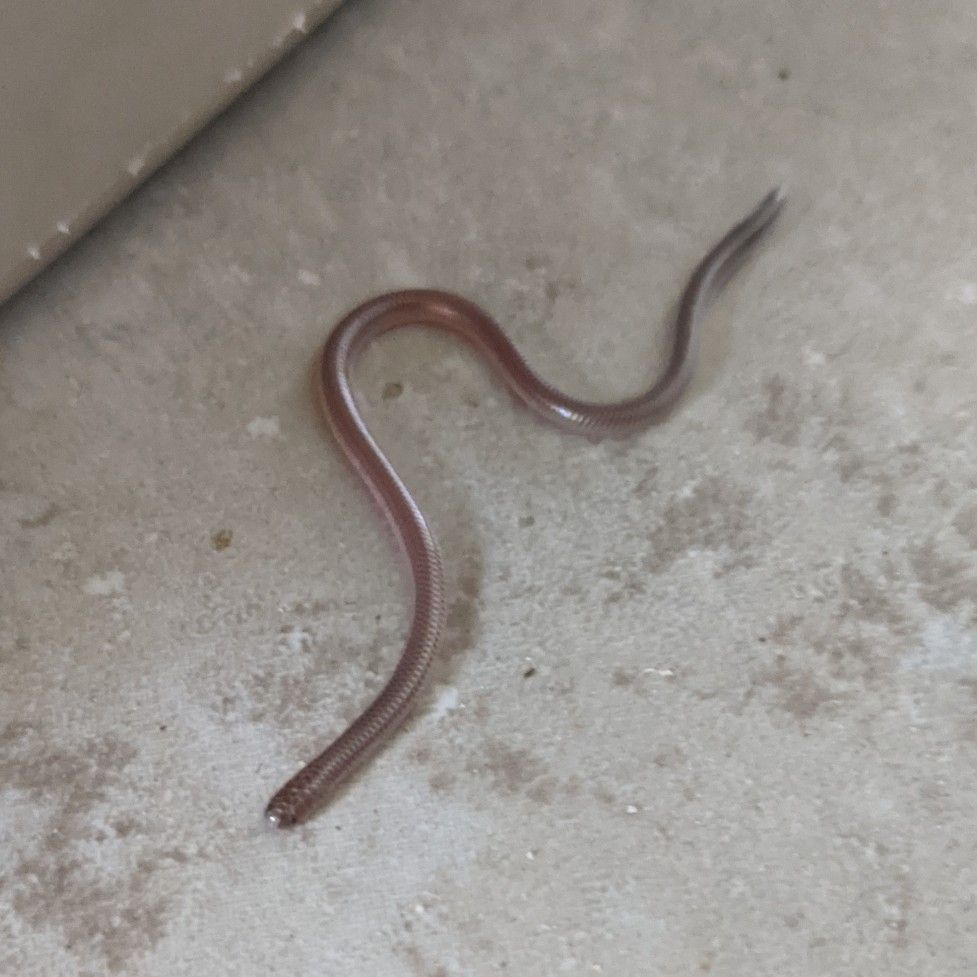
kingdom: Animalia
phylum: Chordata
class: Squamata
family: Leptotyphlopidae
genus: Rena
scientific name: Rena dulcis
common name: Texas blind snake
